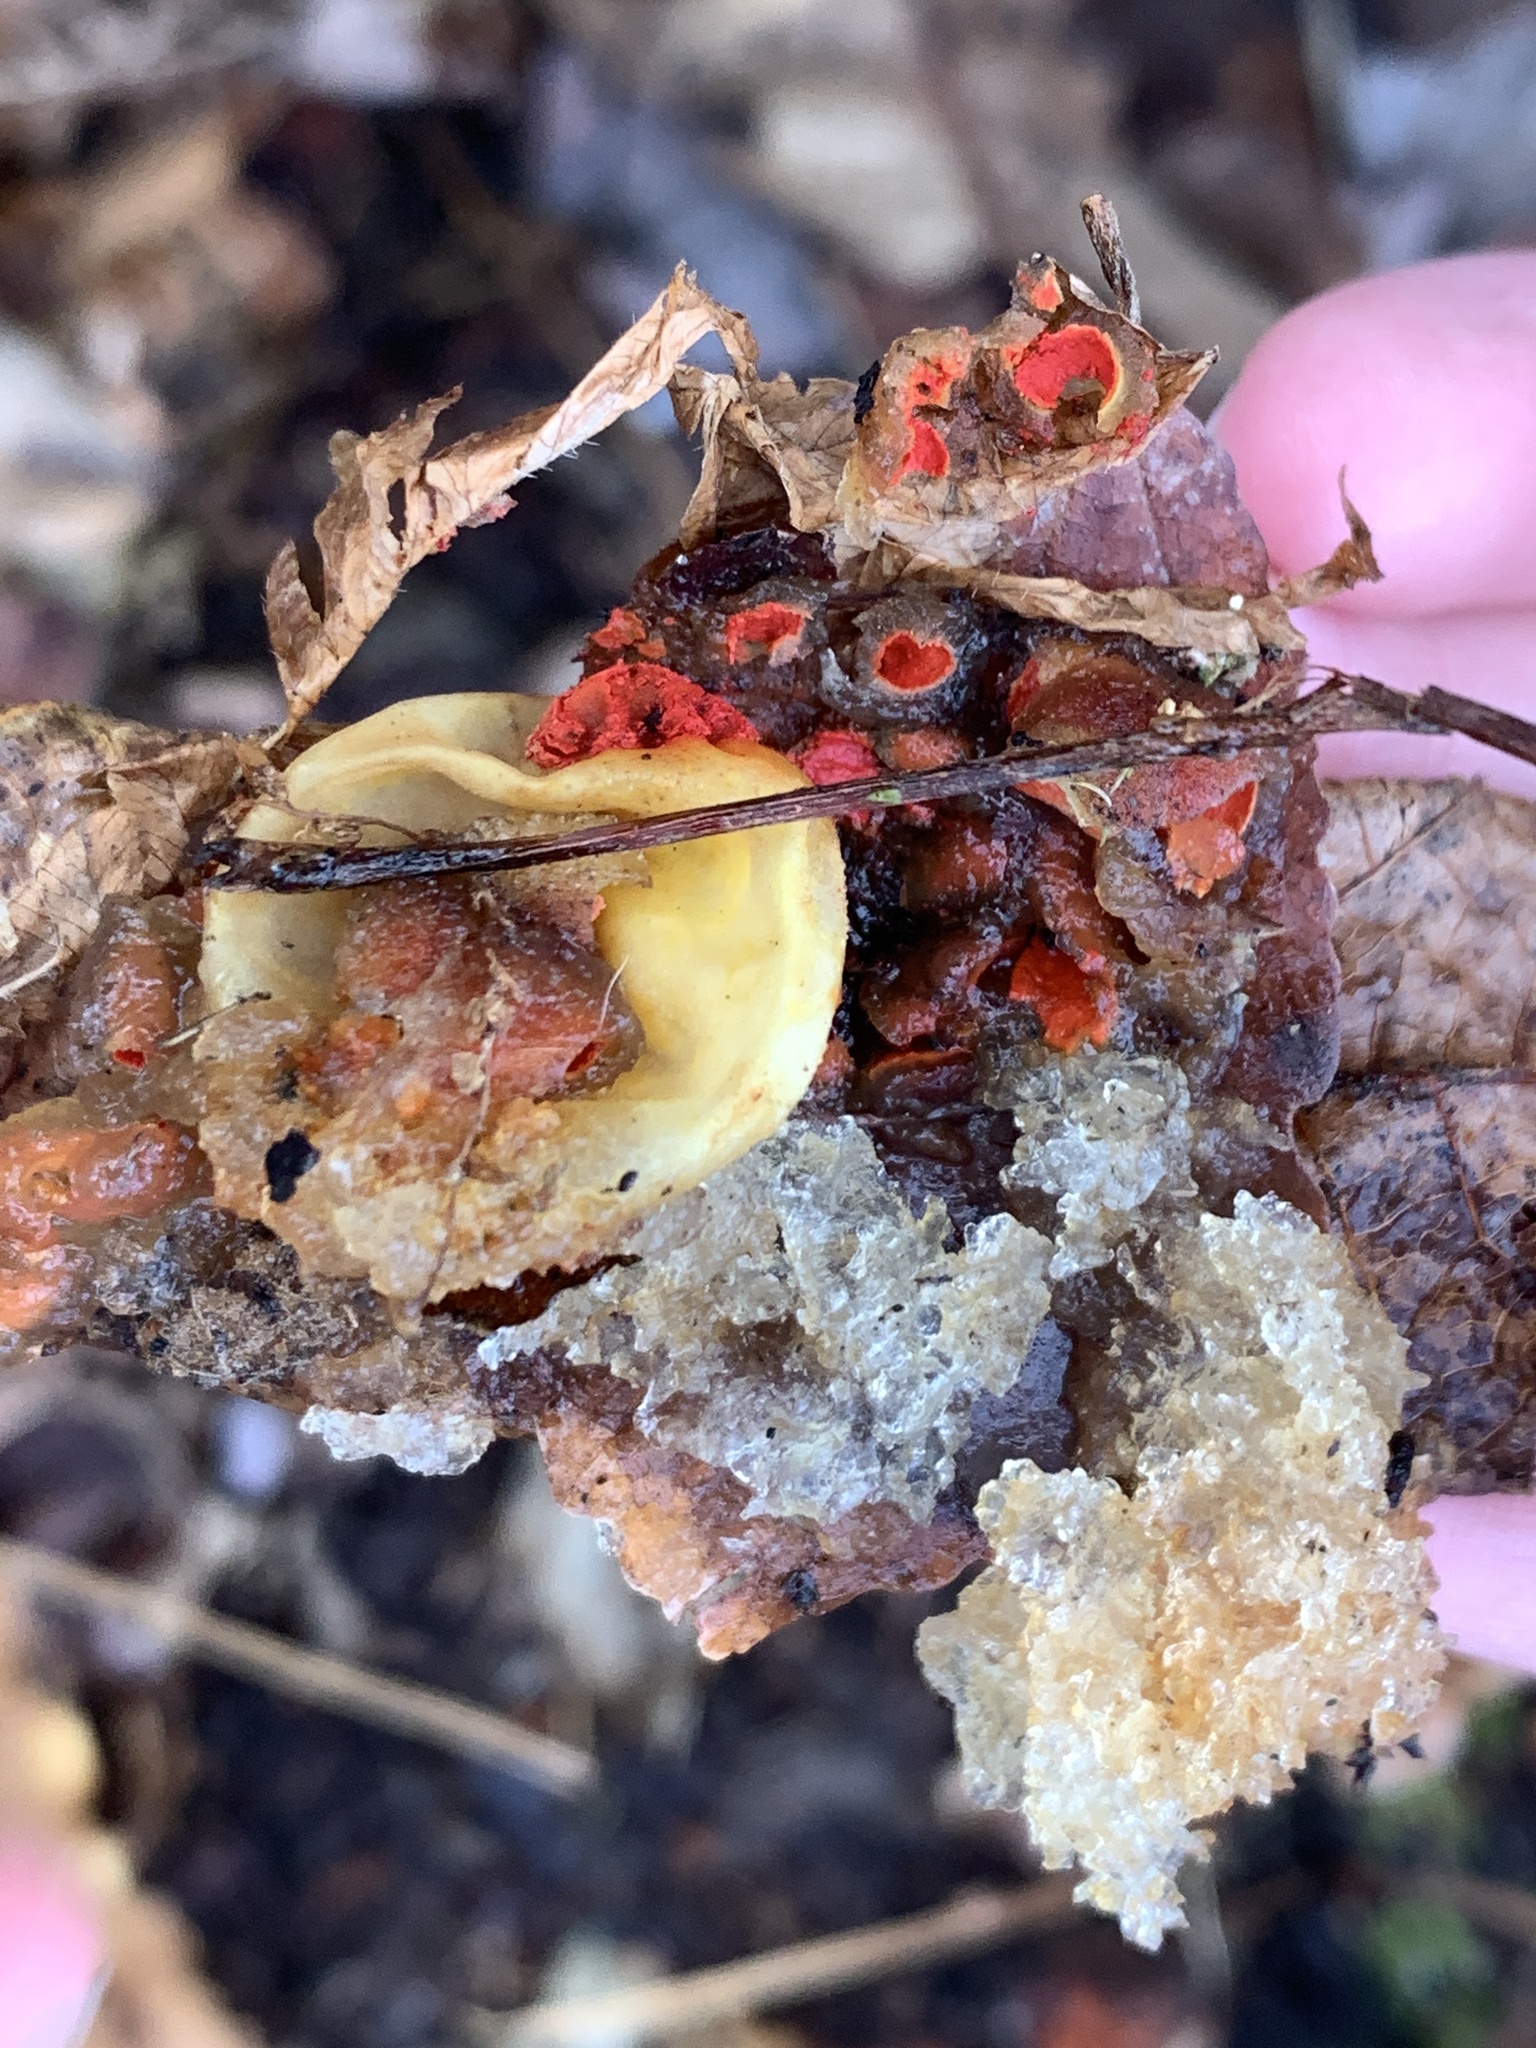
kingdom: Fungi
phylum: Basidiomycota
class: Agaricomycetes
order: Boletales
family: Calostomataceae
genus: Calostoma
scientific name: Calostoma cinnabarinum
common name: Stalked puffball-in-aspic
